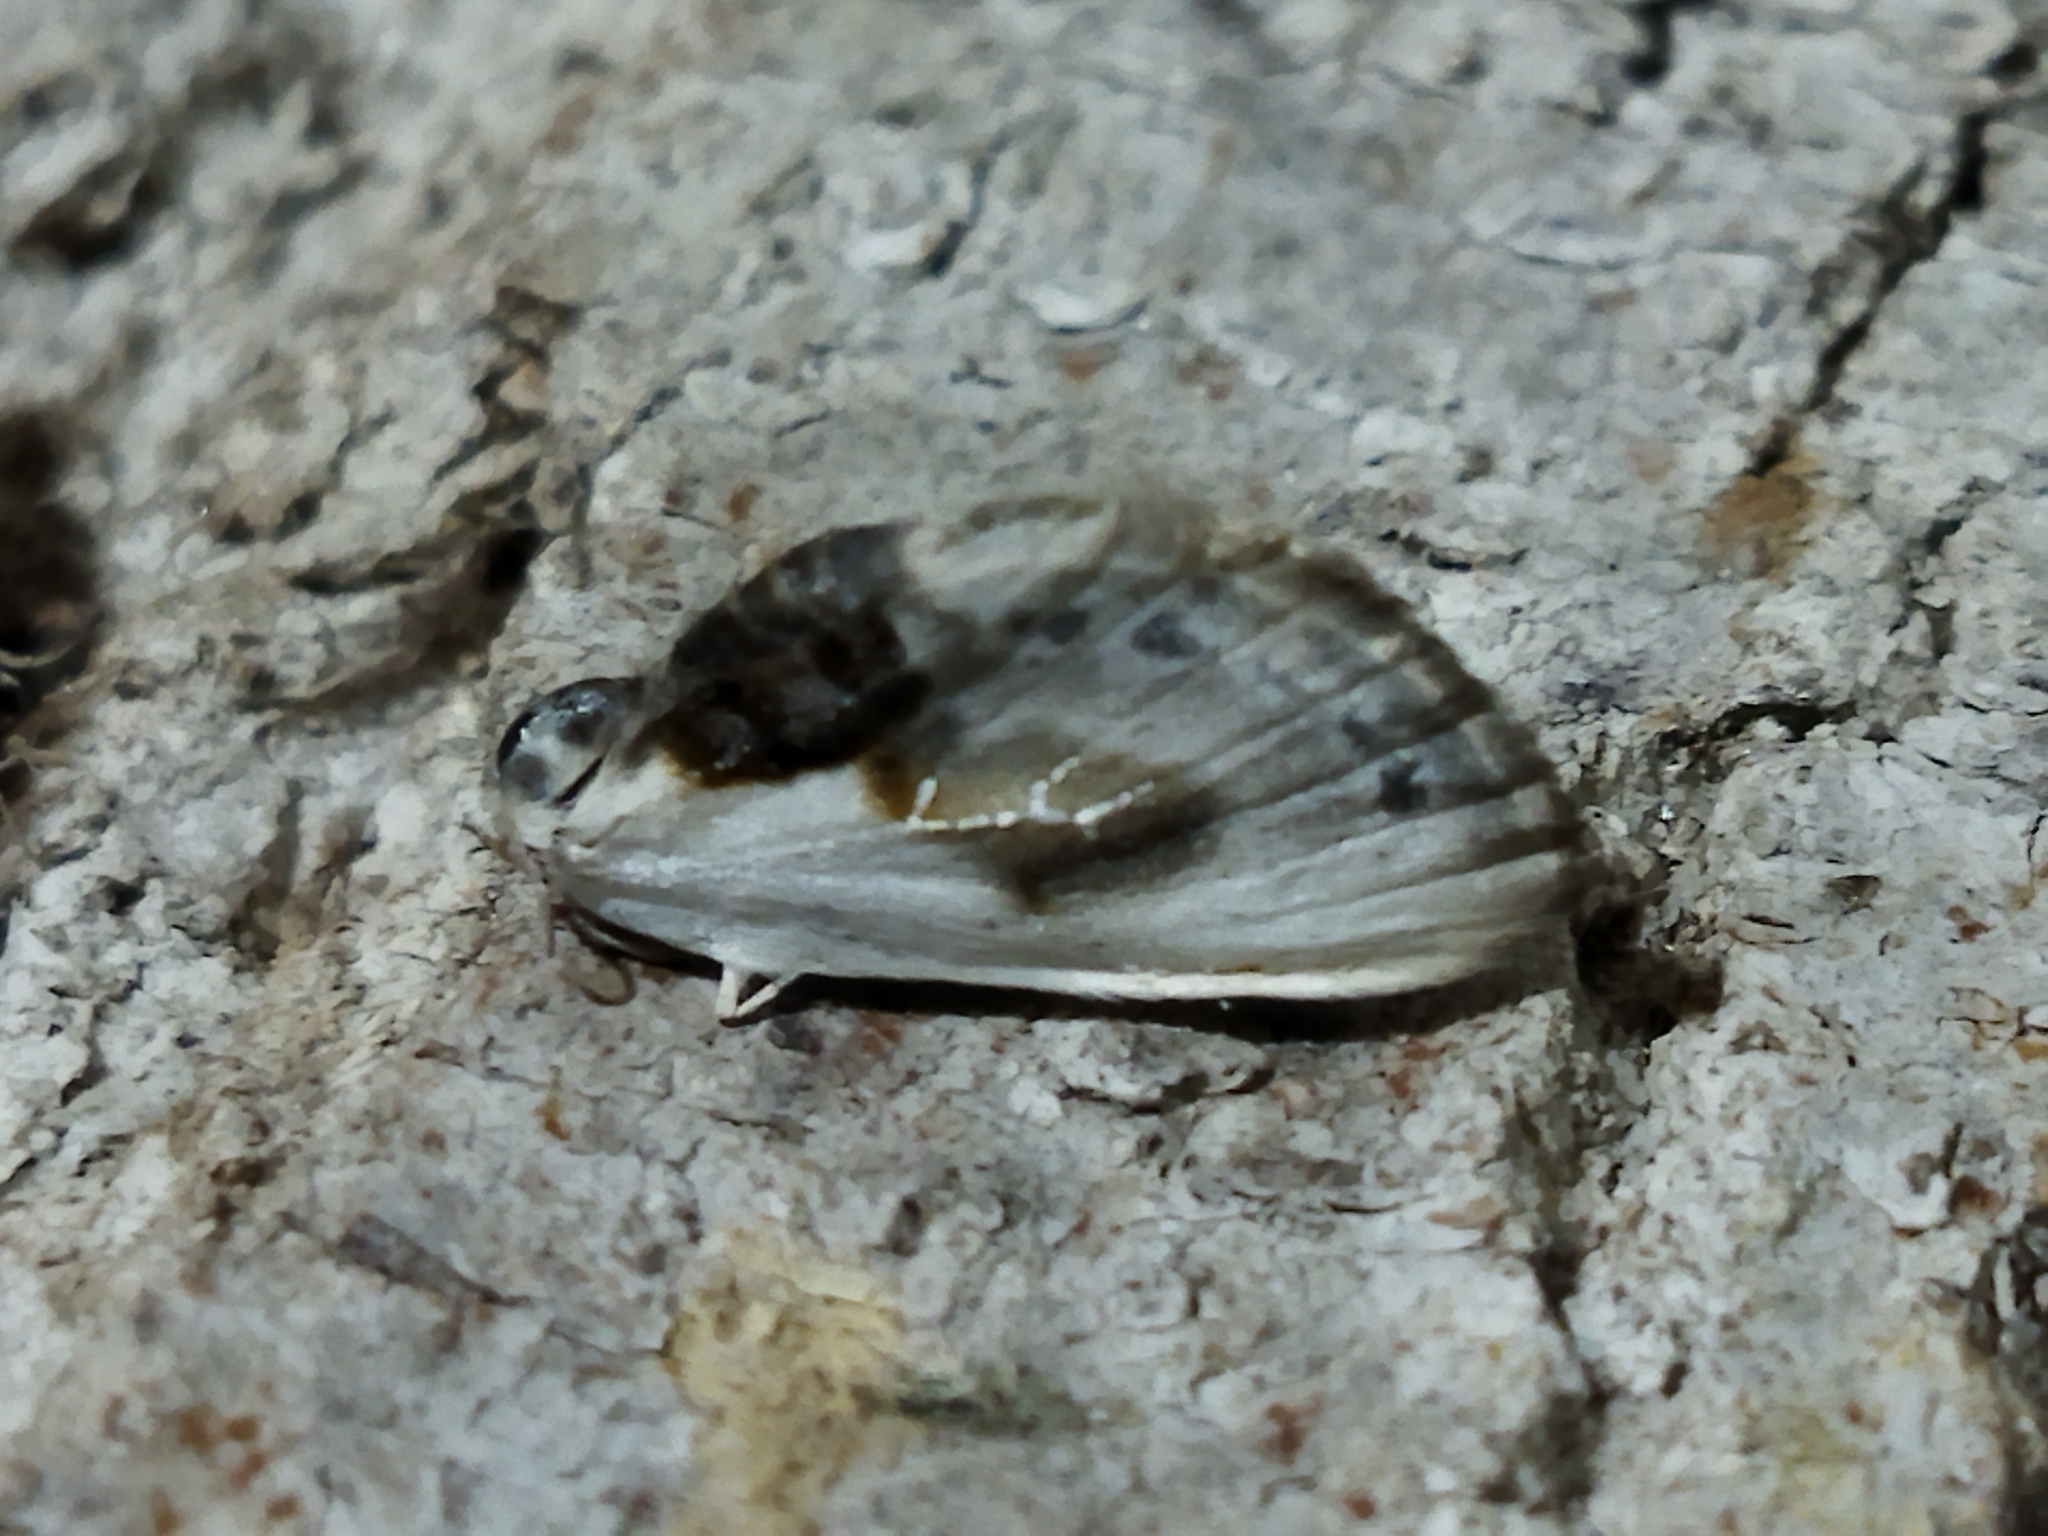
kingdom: Animalia
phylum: Arthropoda
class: Insecta
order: Lepidoptera
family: Drepanidae
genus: Cilix
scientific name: Cilix glaucata
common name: Chinese character
